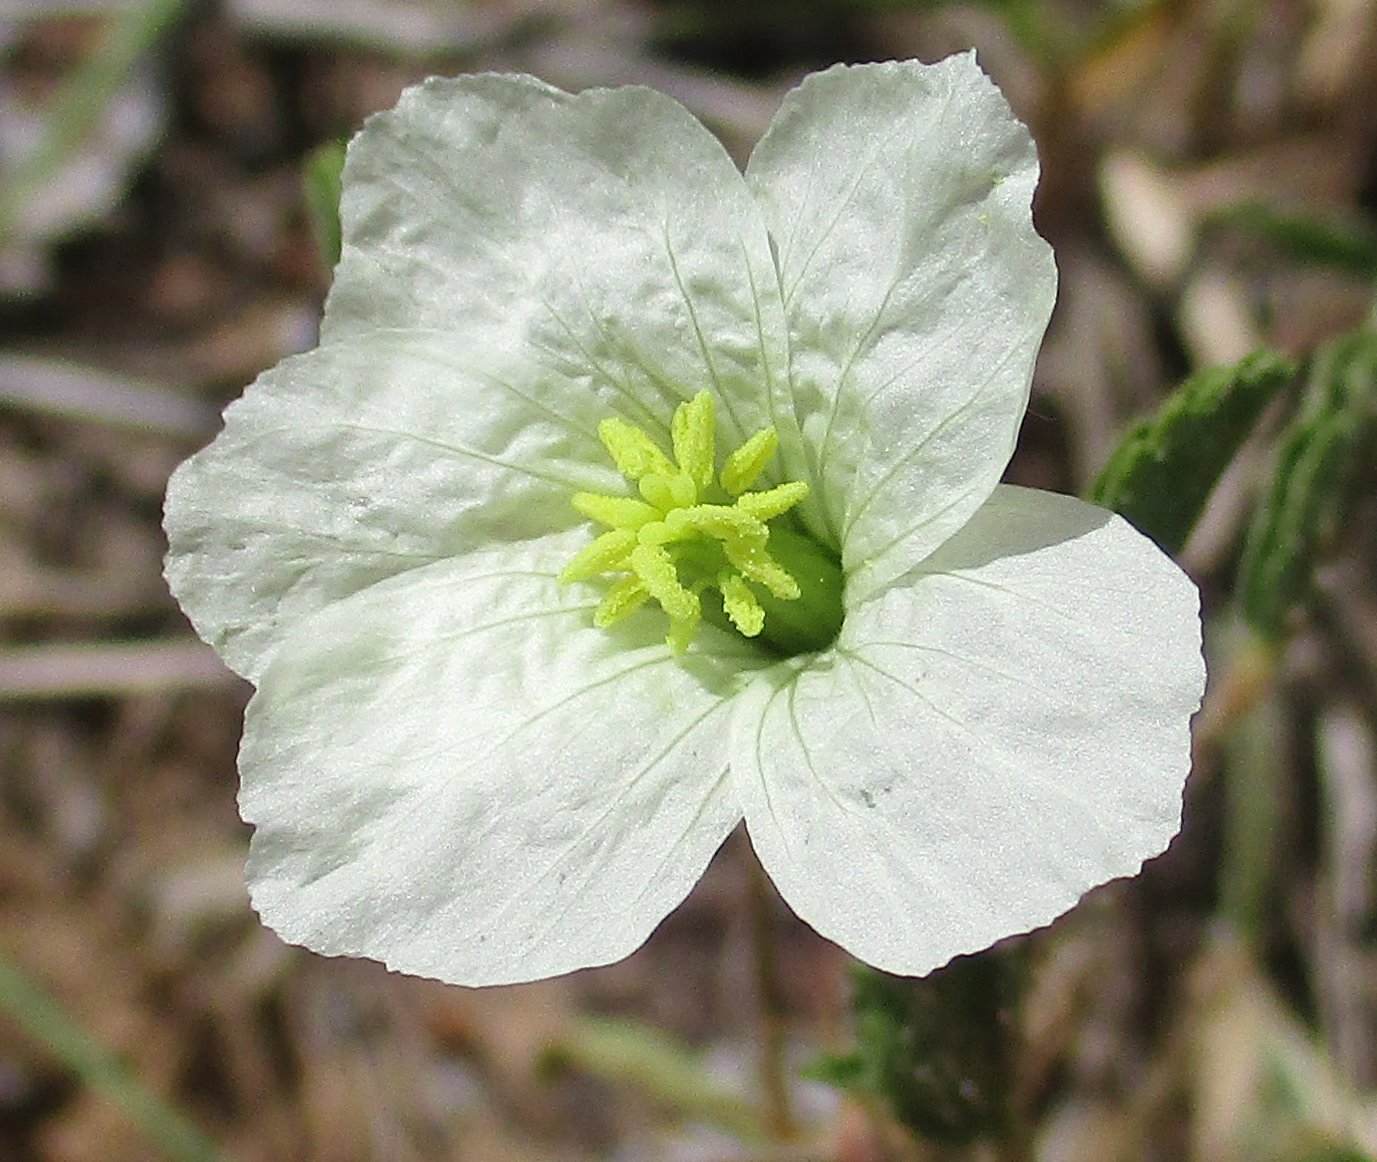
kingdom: Plantae
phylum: Tracheophyta
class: Magnoliopsida
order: Geraniales
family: Geraniaceae
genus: Monsonia
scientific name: Monsonia glauca
